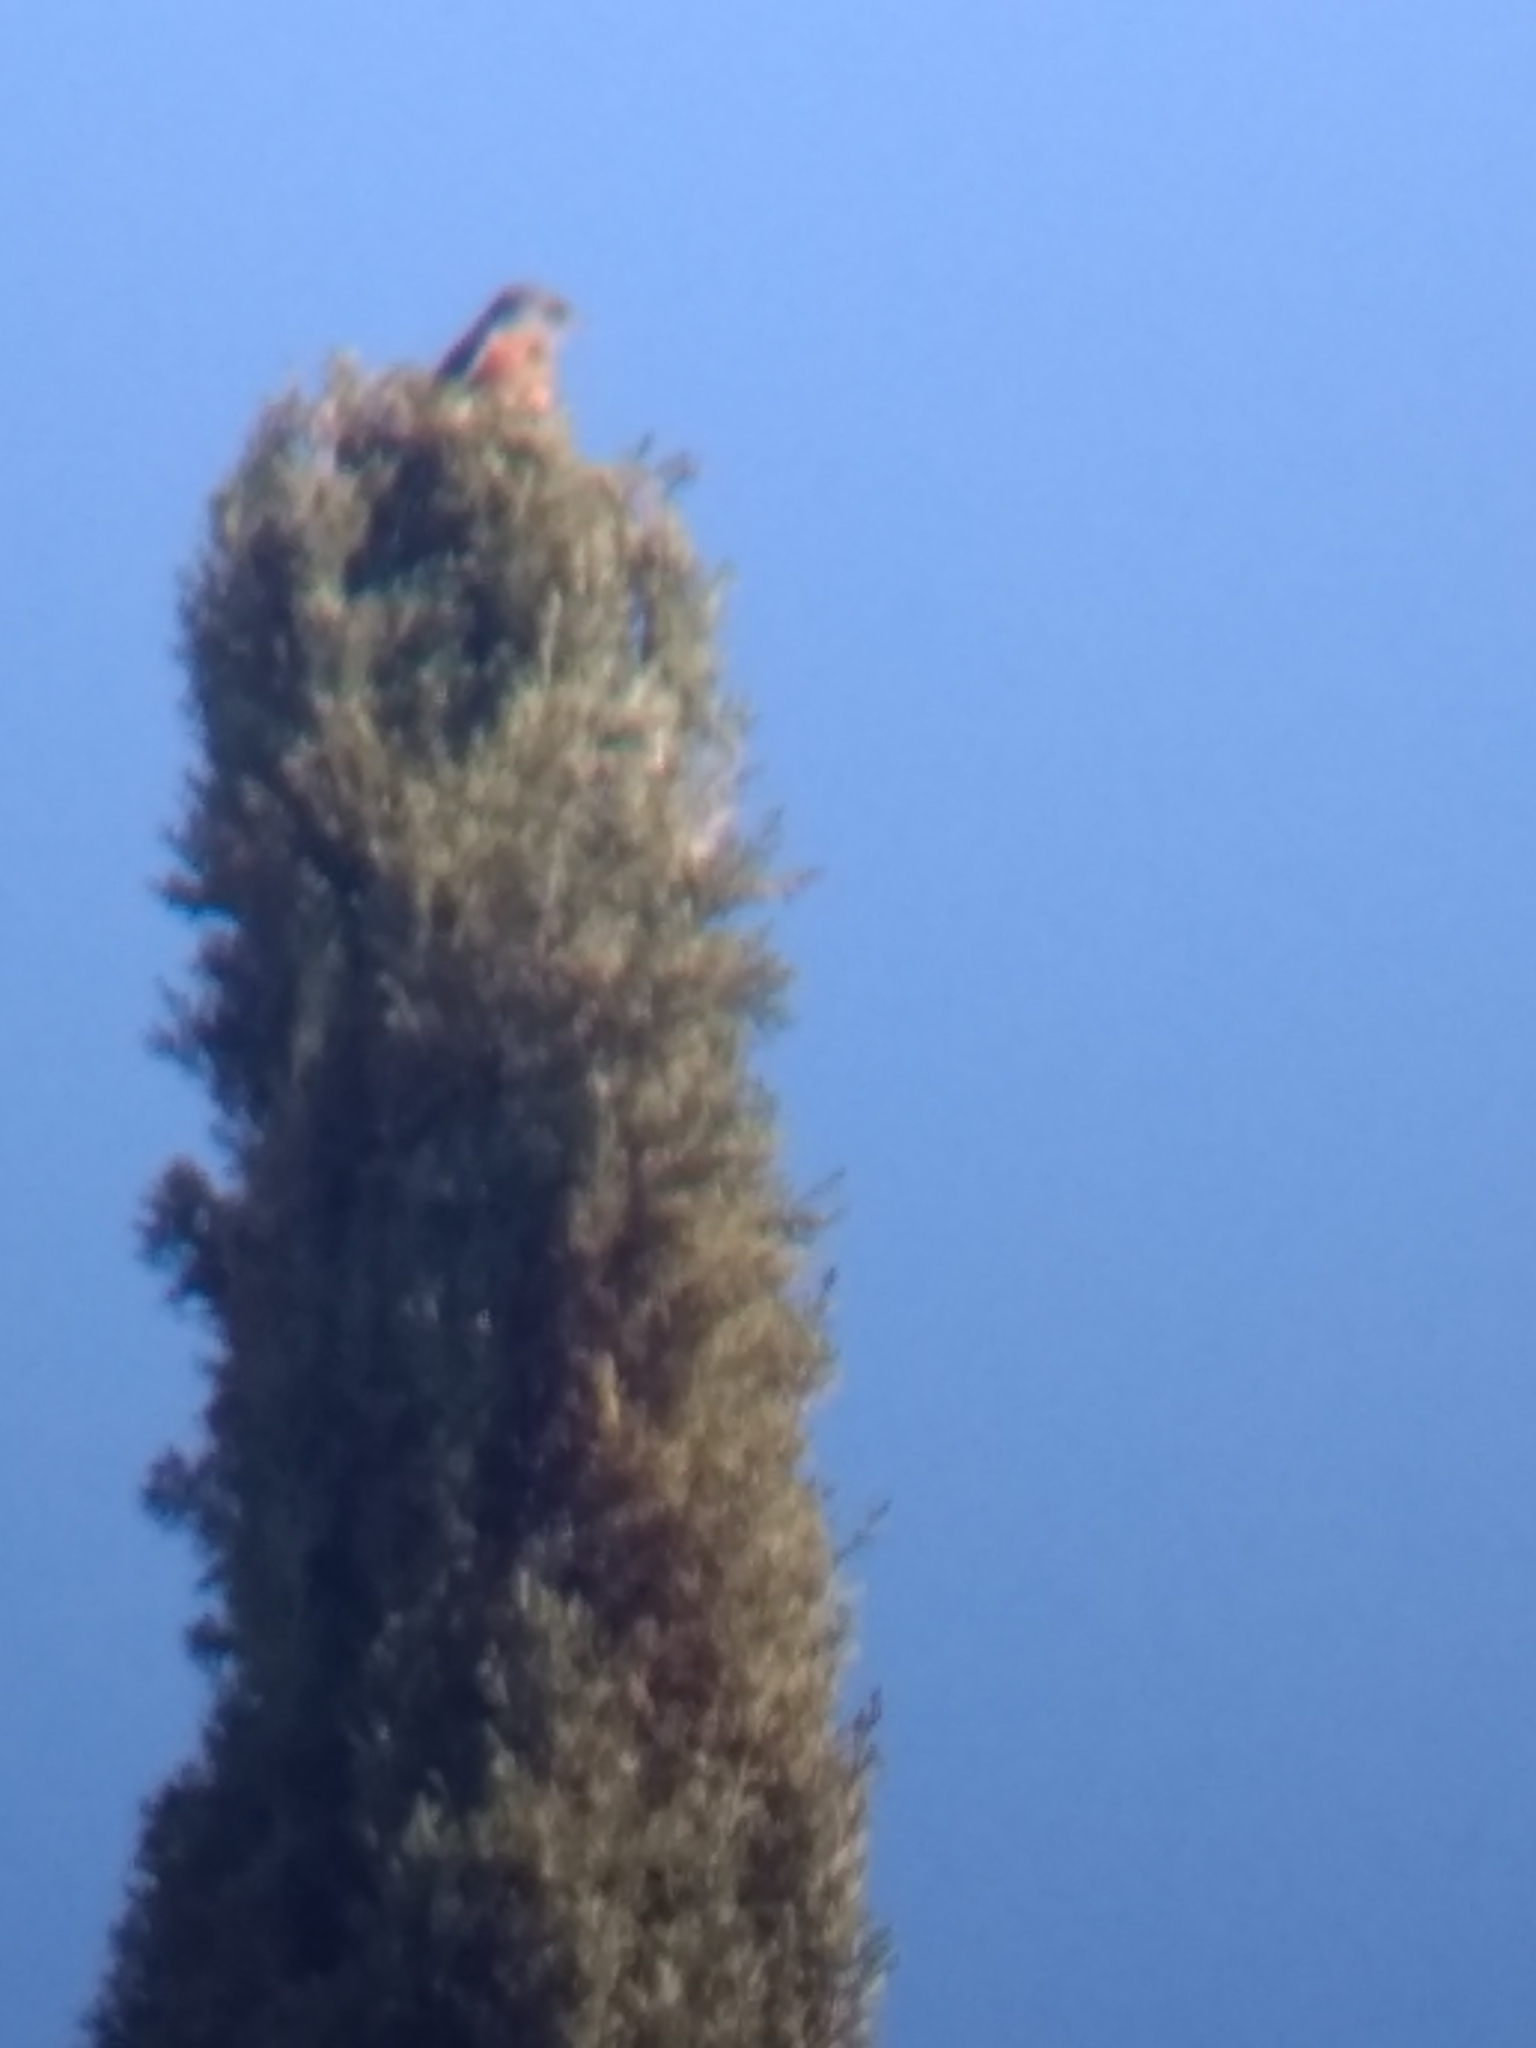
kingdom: Animalia
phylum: Chordata
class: Aves
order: Passeriformes
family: Turdidae
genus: Sialia
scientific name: Sialia mexicana
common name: Western bluebird
